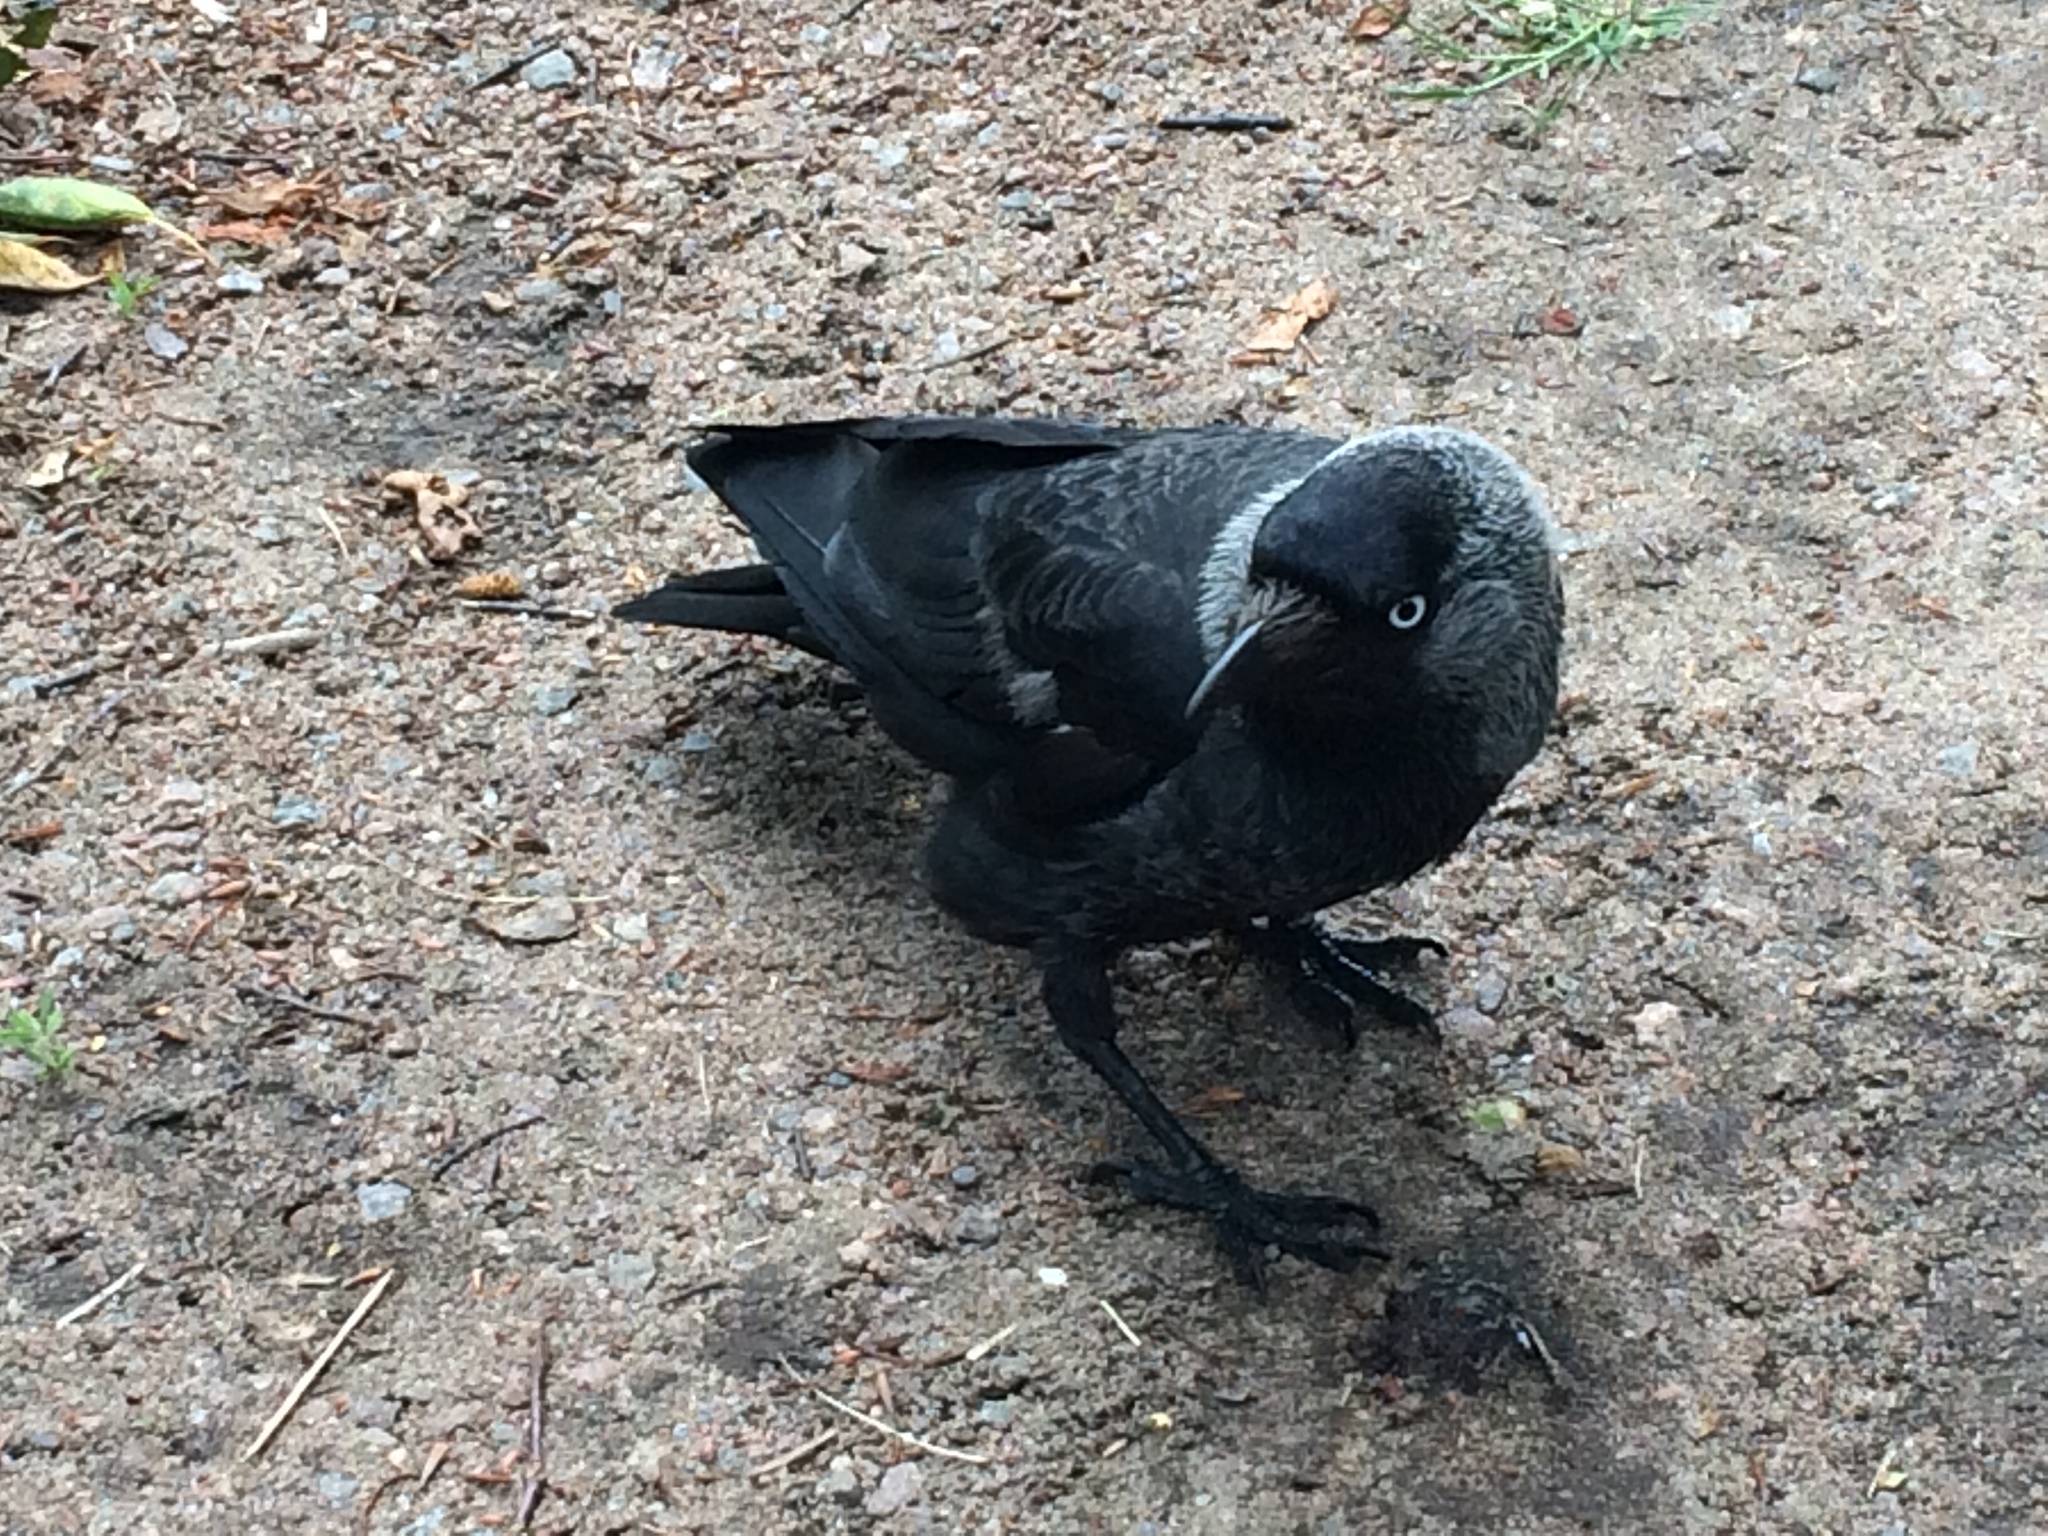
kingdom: Animalia
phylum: Chordata
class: Aves
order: Passeriformes
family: Corvidae
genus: Coloeus
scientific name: Coloeus monedula
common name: Western jackdaw
